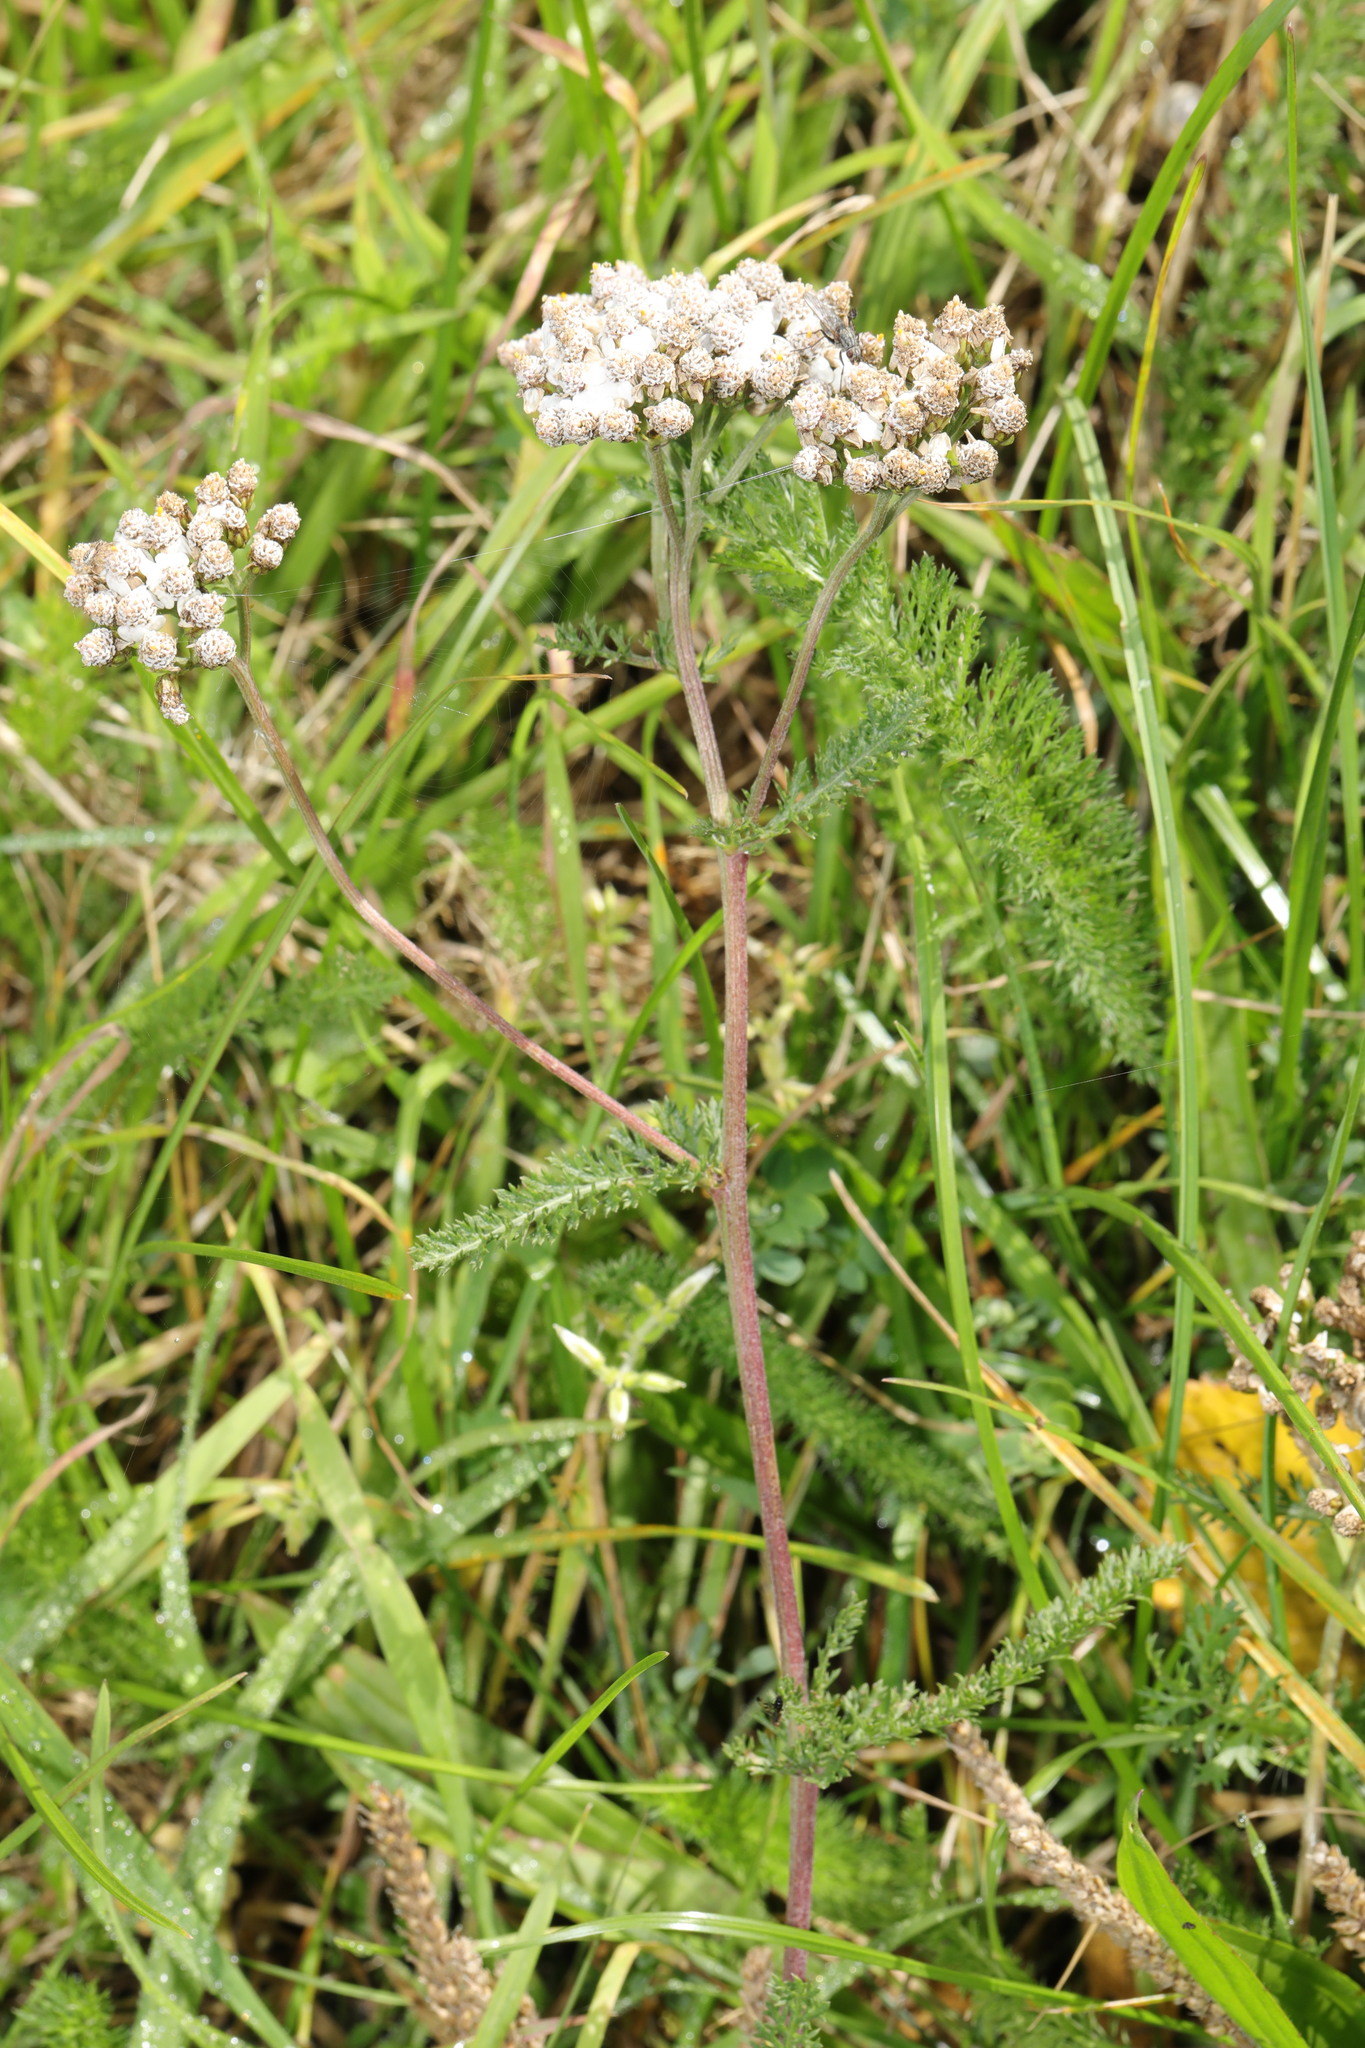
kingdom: Plantae
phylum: Tracheophyta
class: Magnoliopsida
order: Asterales
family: Asteraceae
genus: Achillea
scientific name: Achillea millefolium
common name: Yarrow
